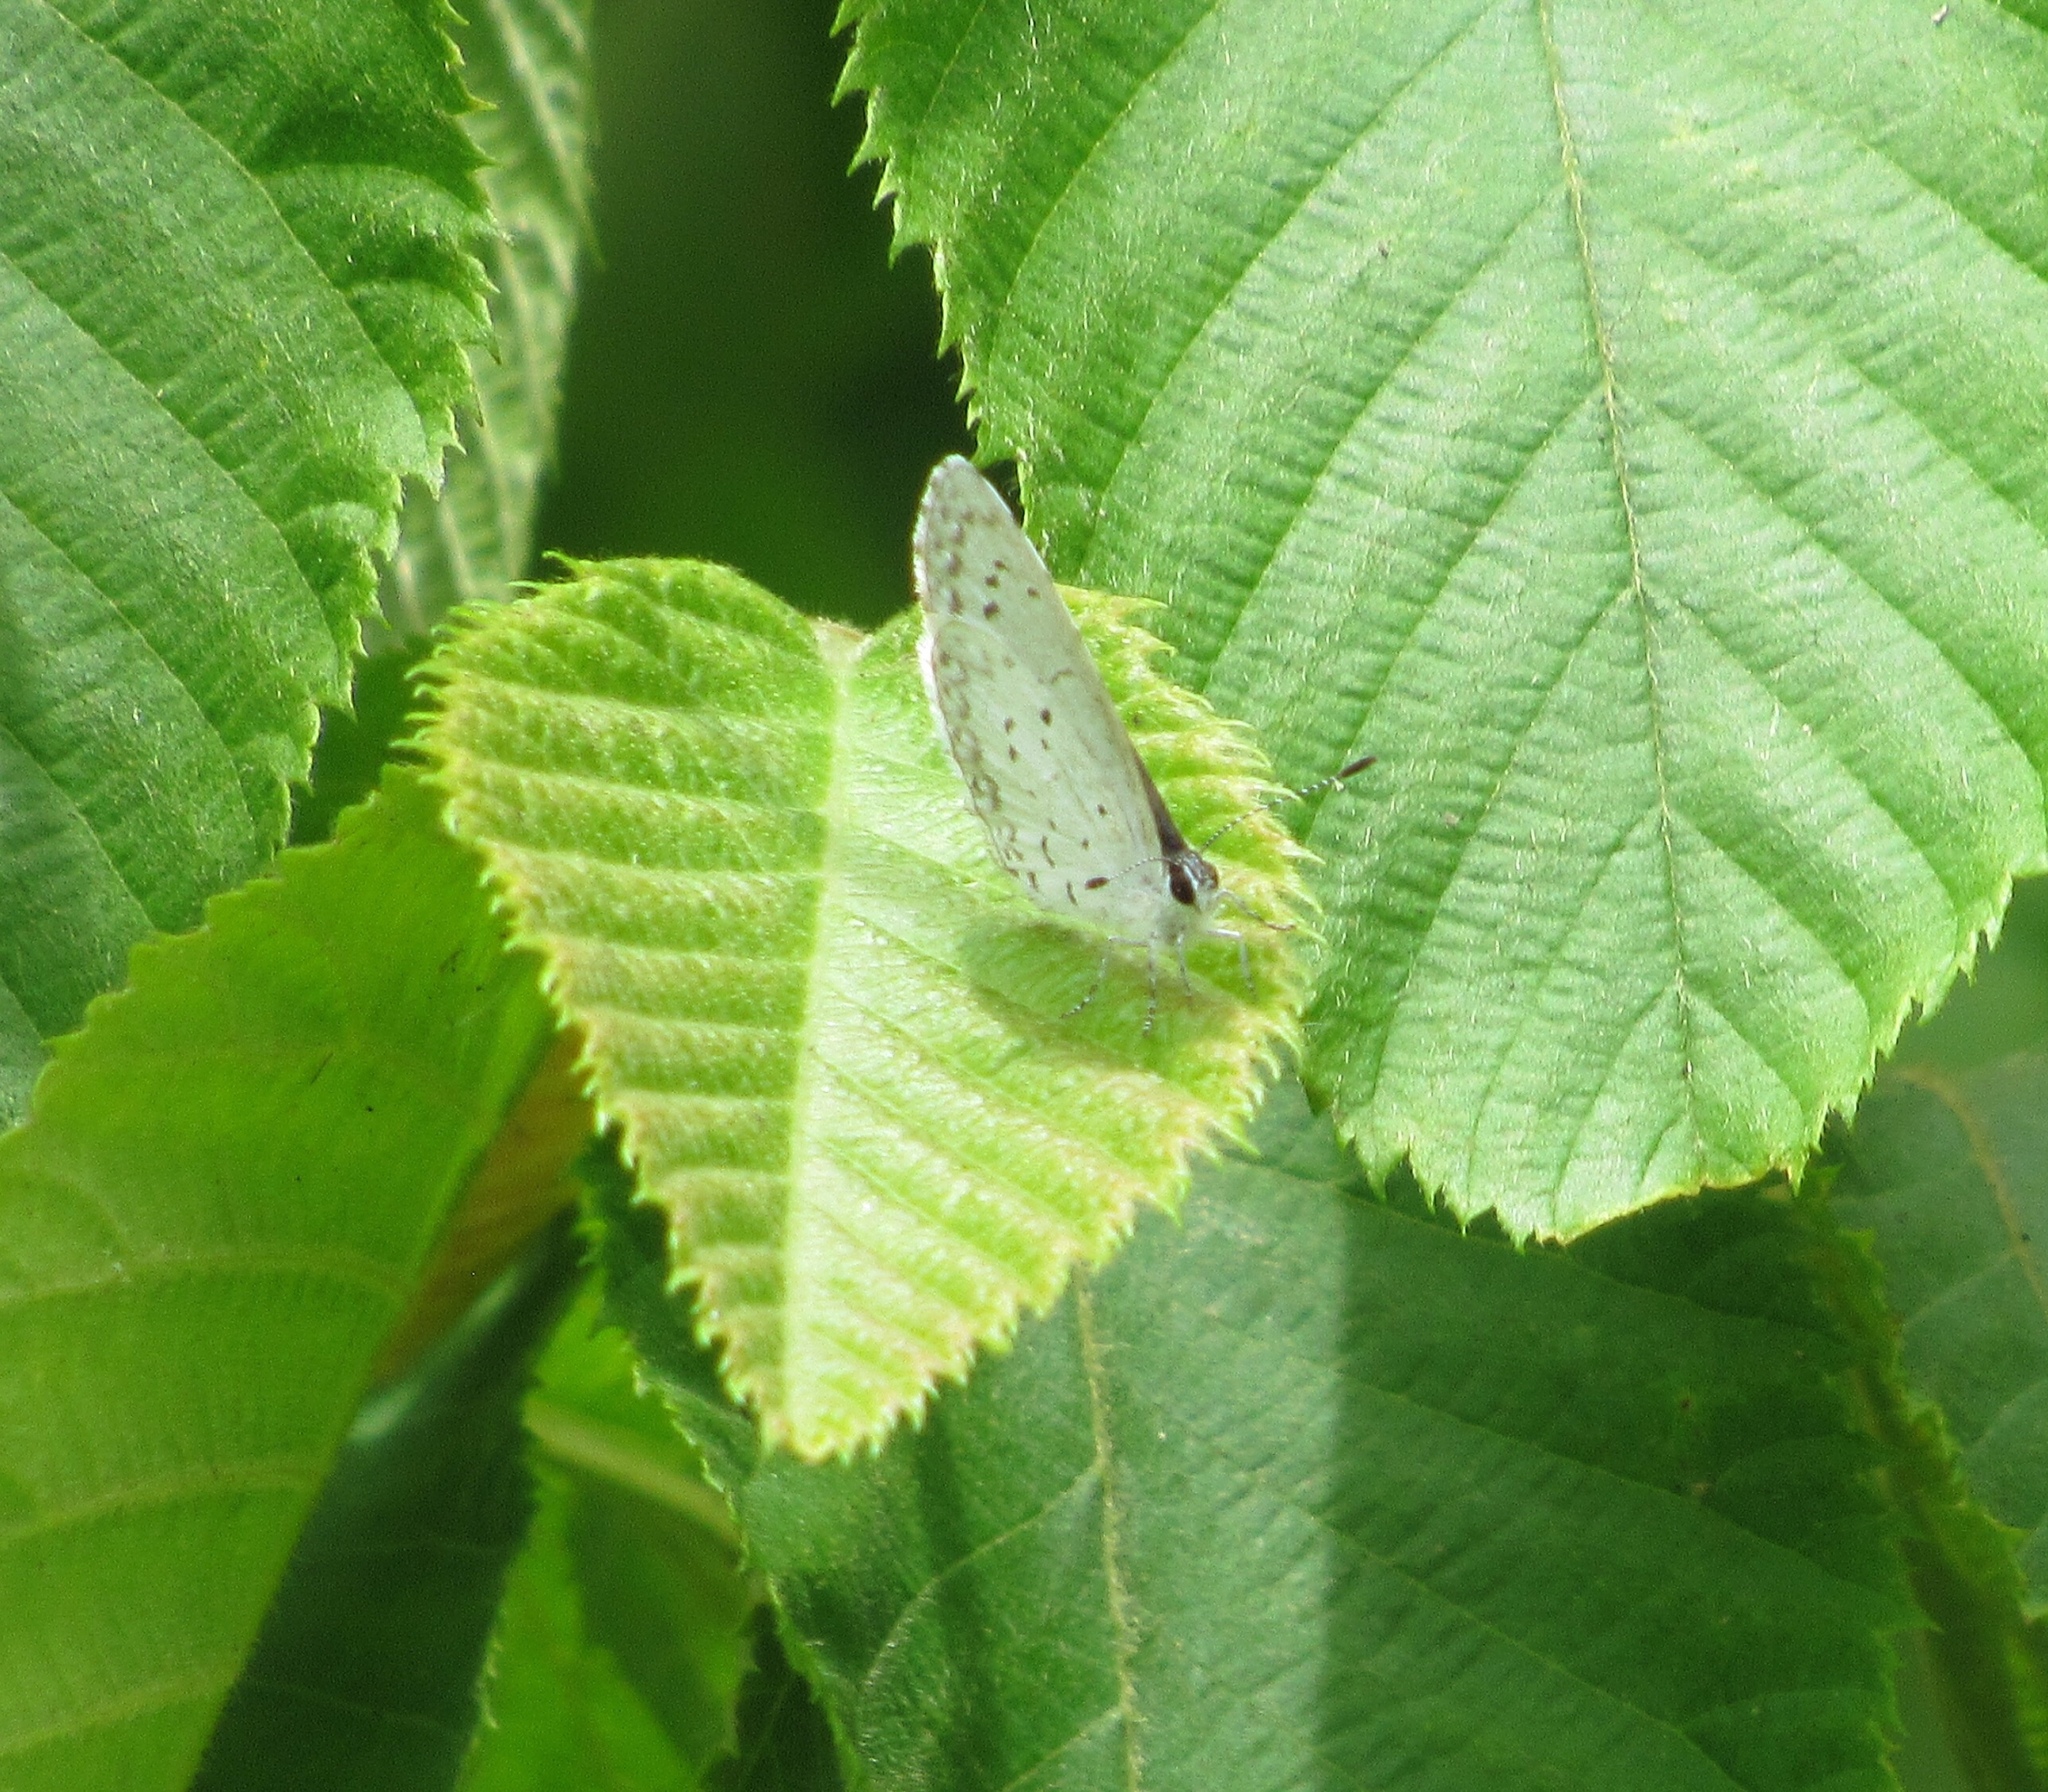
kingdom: Animalia
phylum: Arthropoda
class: Insecta
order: Lepidoptera
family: Lycaenidae
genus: Cyaniris
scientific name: Cyaniris neglecta
